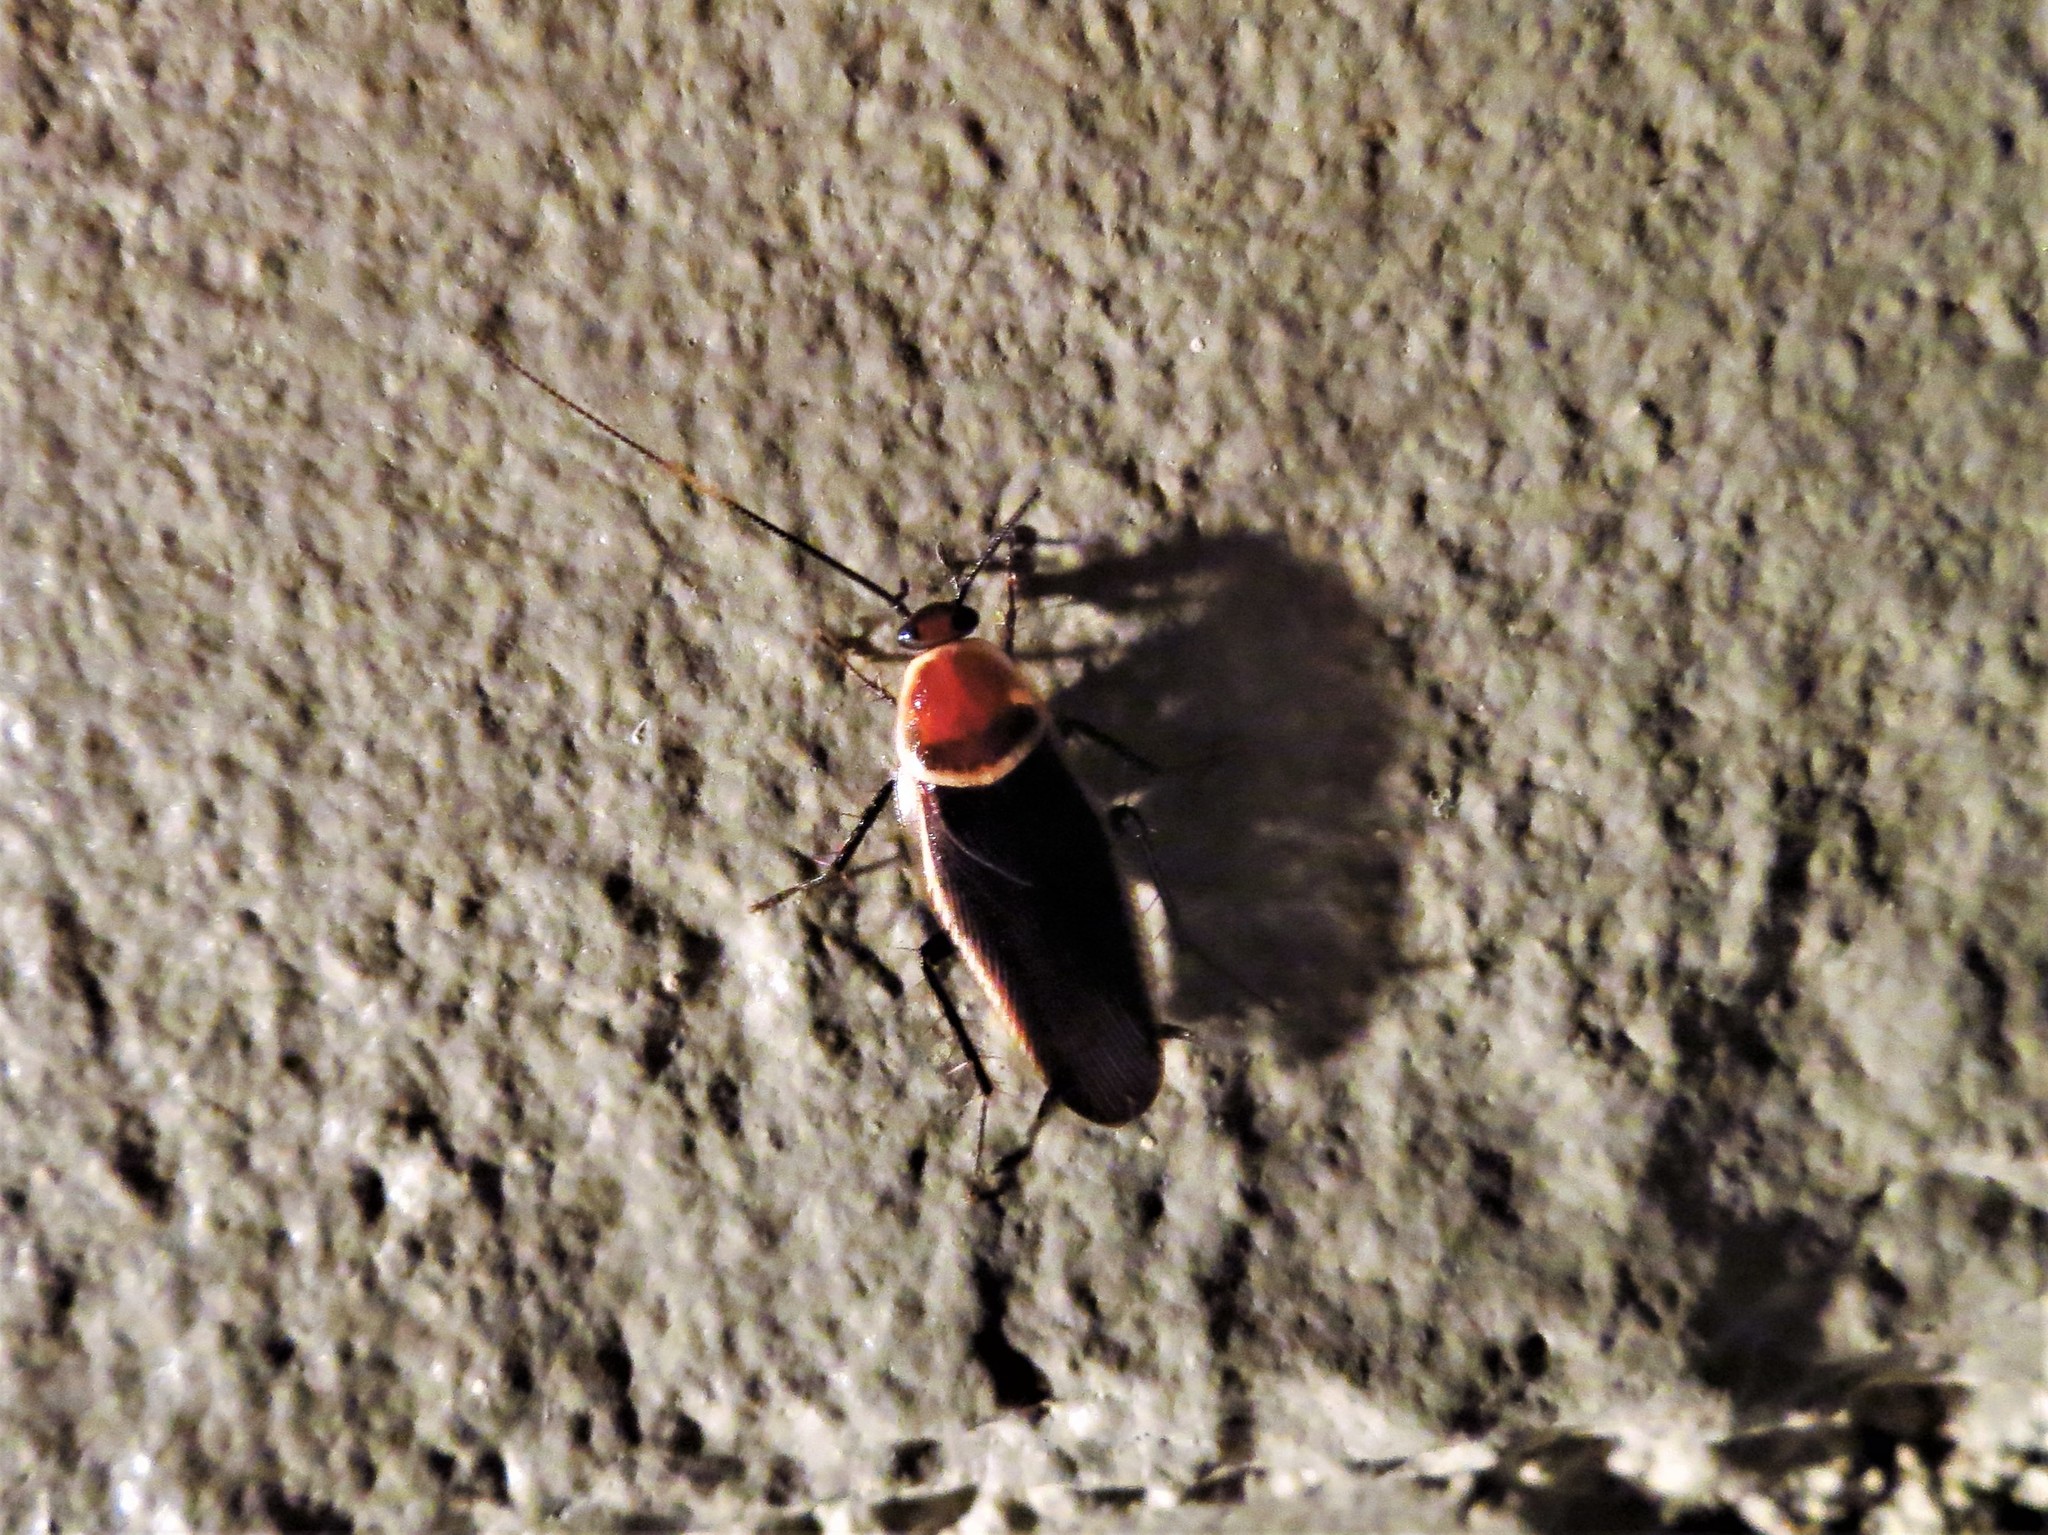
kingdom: Animalia
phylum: Arthropoda
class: Insecta
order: Blattodea
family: Ectobiidae
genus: Pseudomops
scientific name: Pseudomops septentrionalis
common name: Pale-bordered field cockroach
